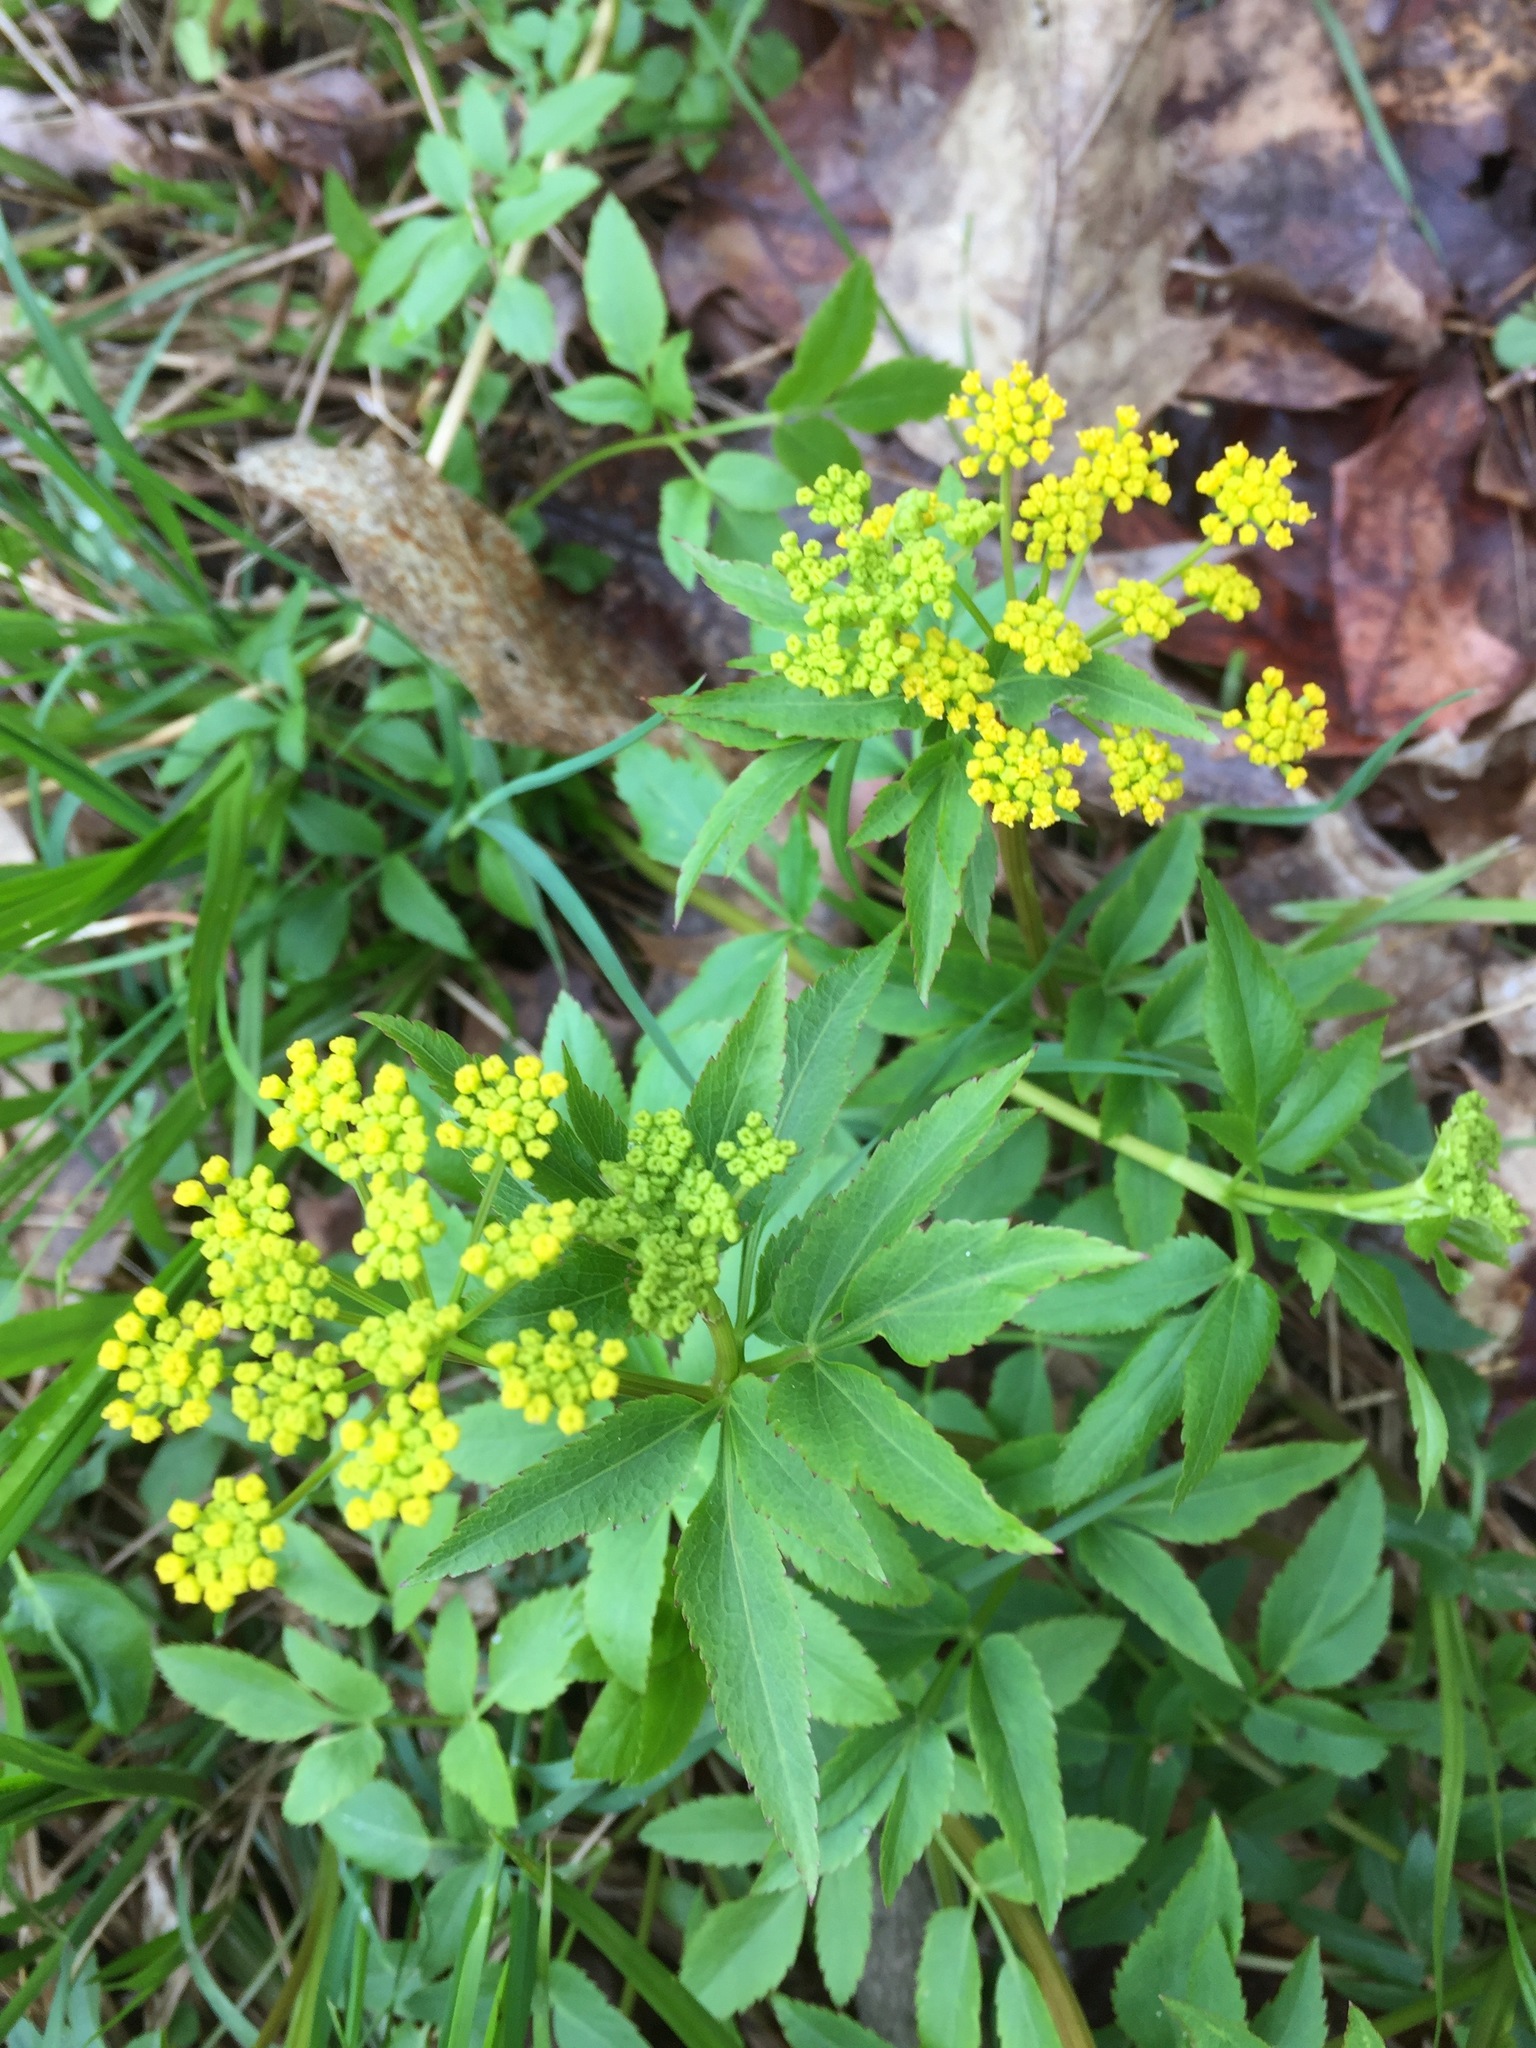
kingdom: Plantae
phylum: Tracheophyta
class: Magnoliopsida
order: Apiales
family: Apiaceae
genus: Zizia
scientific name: Zizia aurea
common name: Golden alexanders
